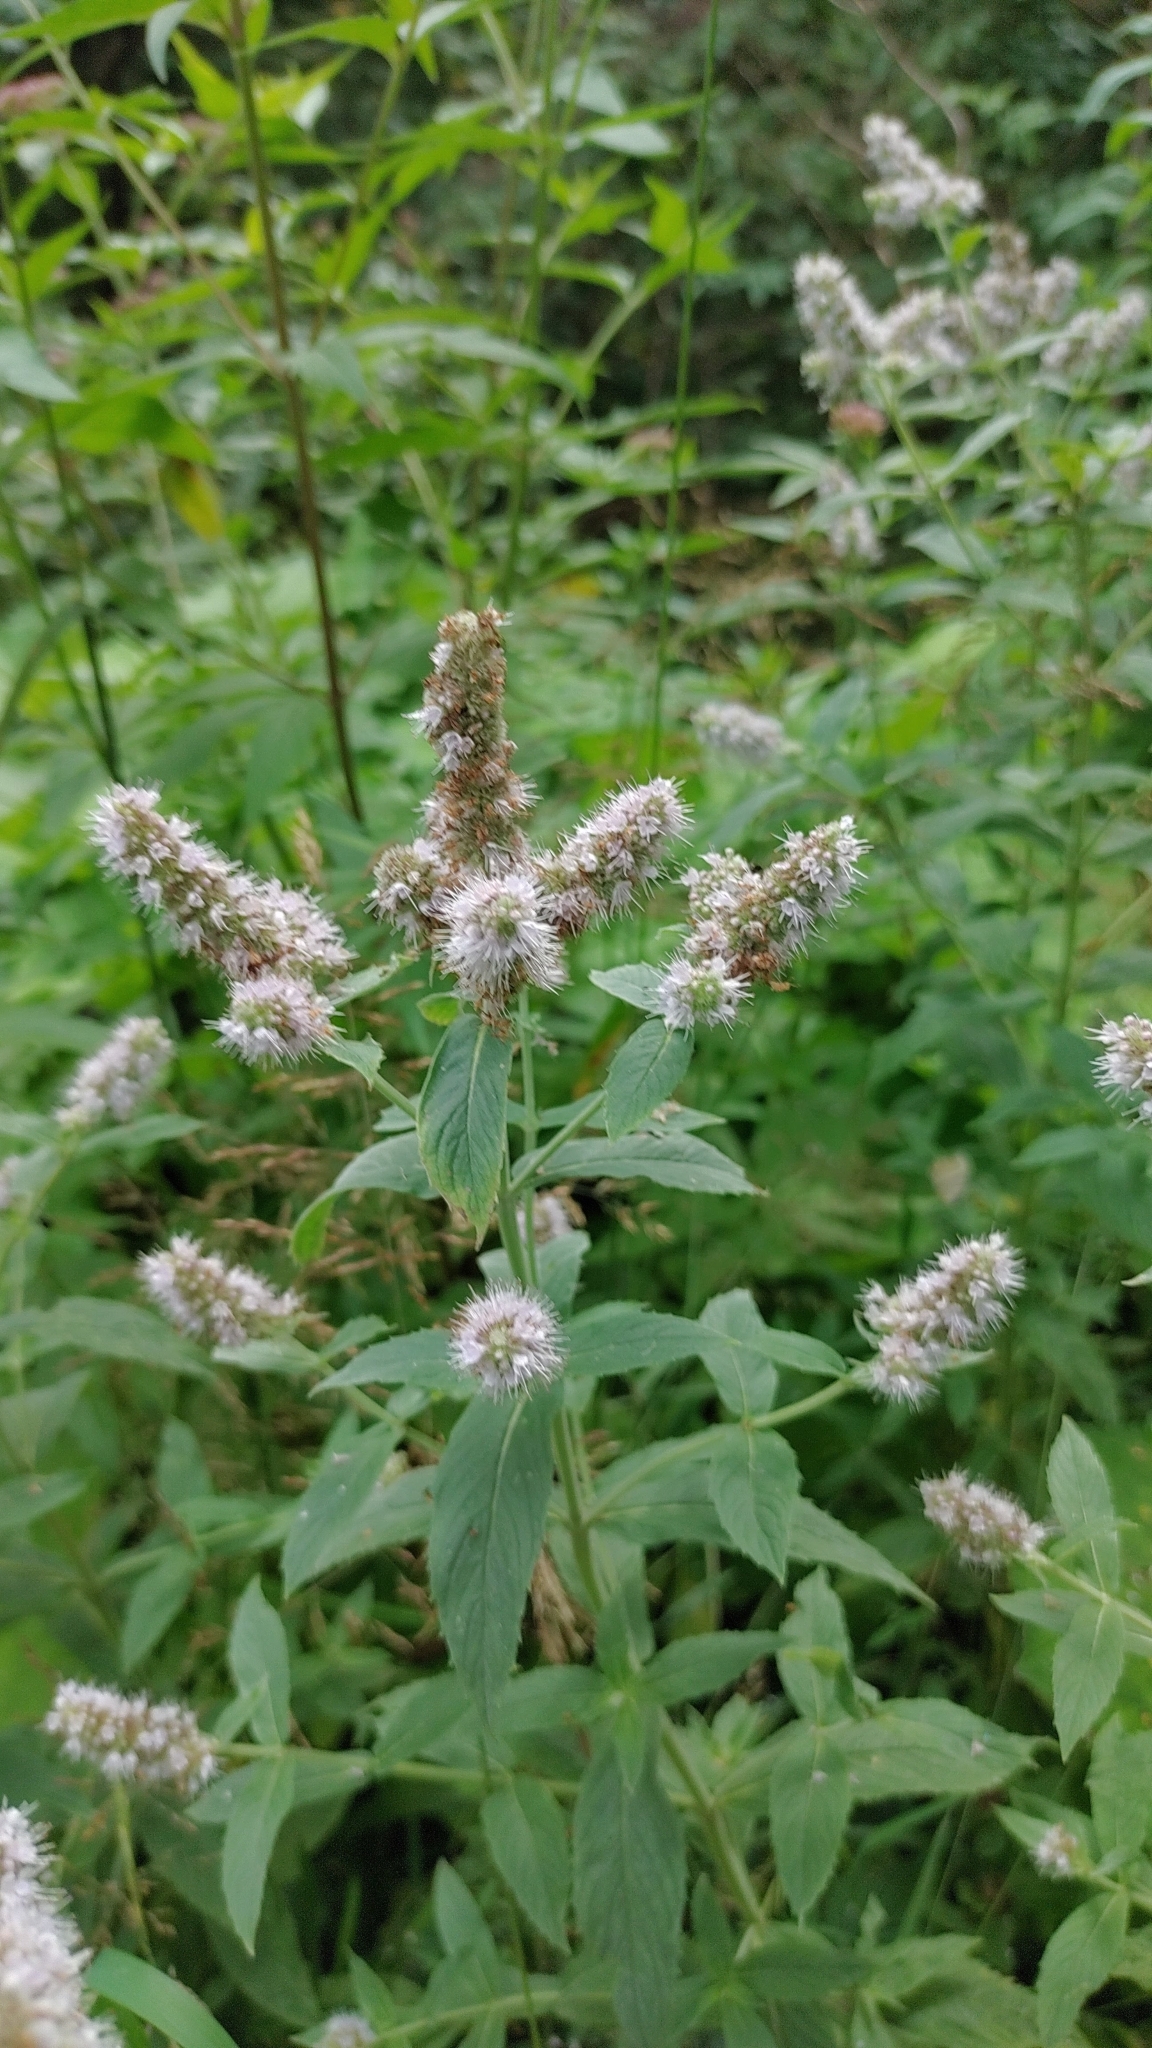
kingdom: Plantae
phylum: Tracheophyta
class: Magnoliopsida
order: Lamiales
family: Lamiaceae
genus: Mentha
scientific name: Mentha longifolia
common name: Horse mint
